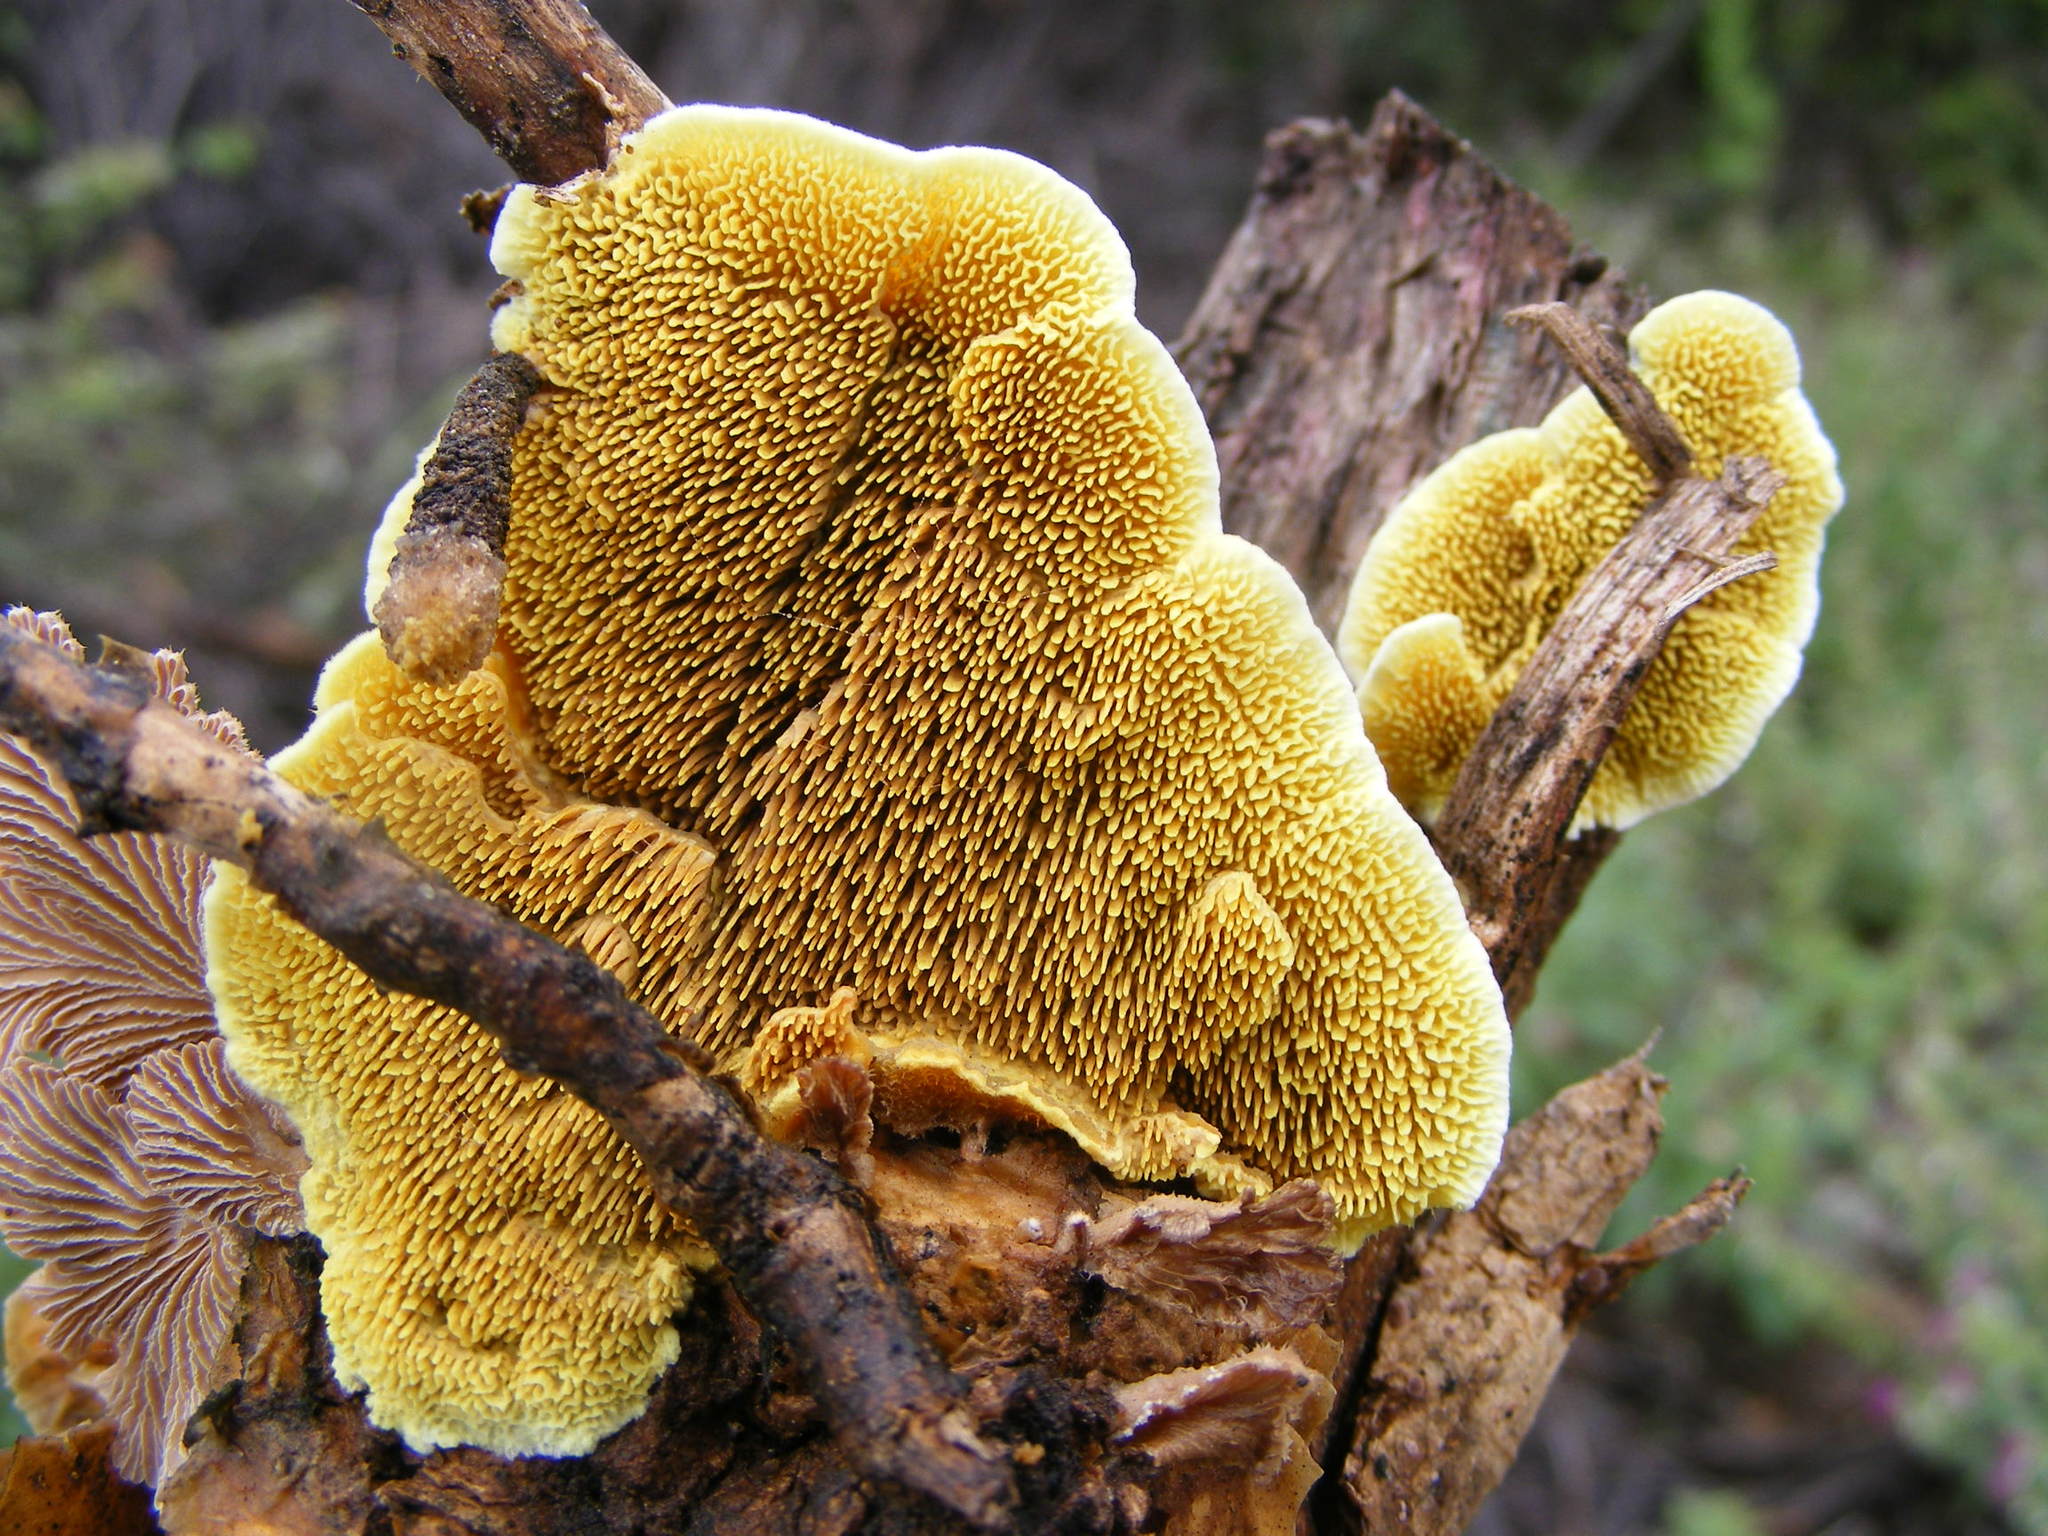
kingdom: Fungi
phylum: Basidiomycota
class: Agaricomycetes
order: Polyporales
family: Meruliaceae
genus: Mycoacia
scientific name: Mycoacia uda
